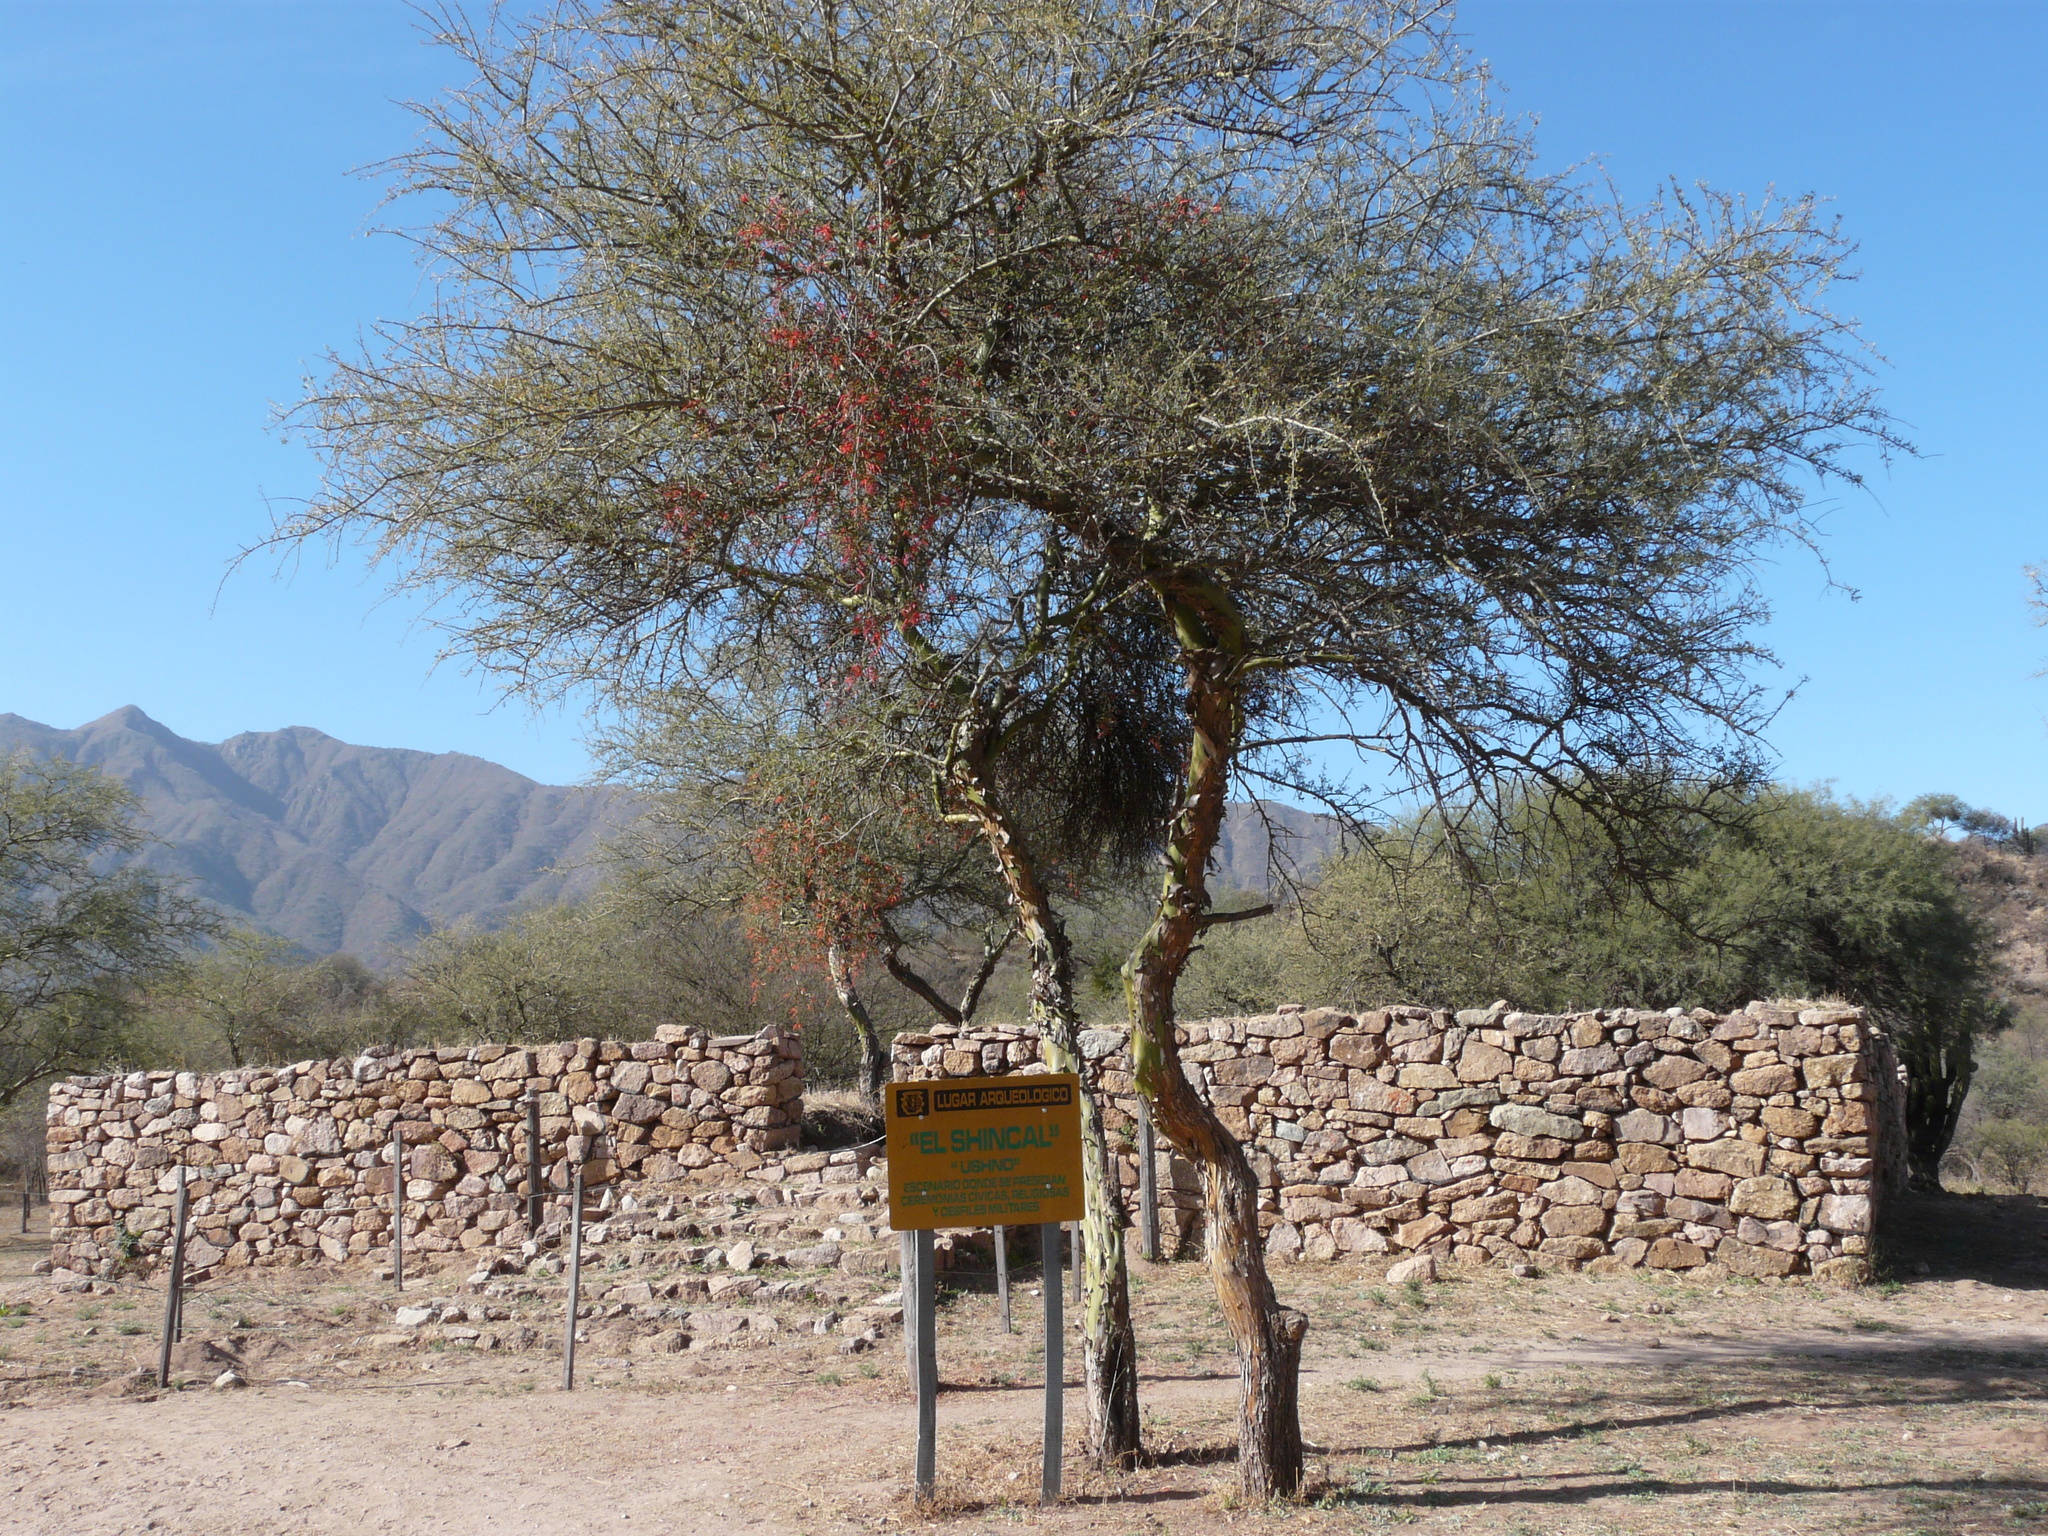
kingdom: Plantae
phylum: Tracheophyta
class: Magnoliopsida
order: Fabales
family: Fabaceae
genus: Geoffroea
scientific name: Geoffroea decorticans
